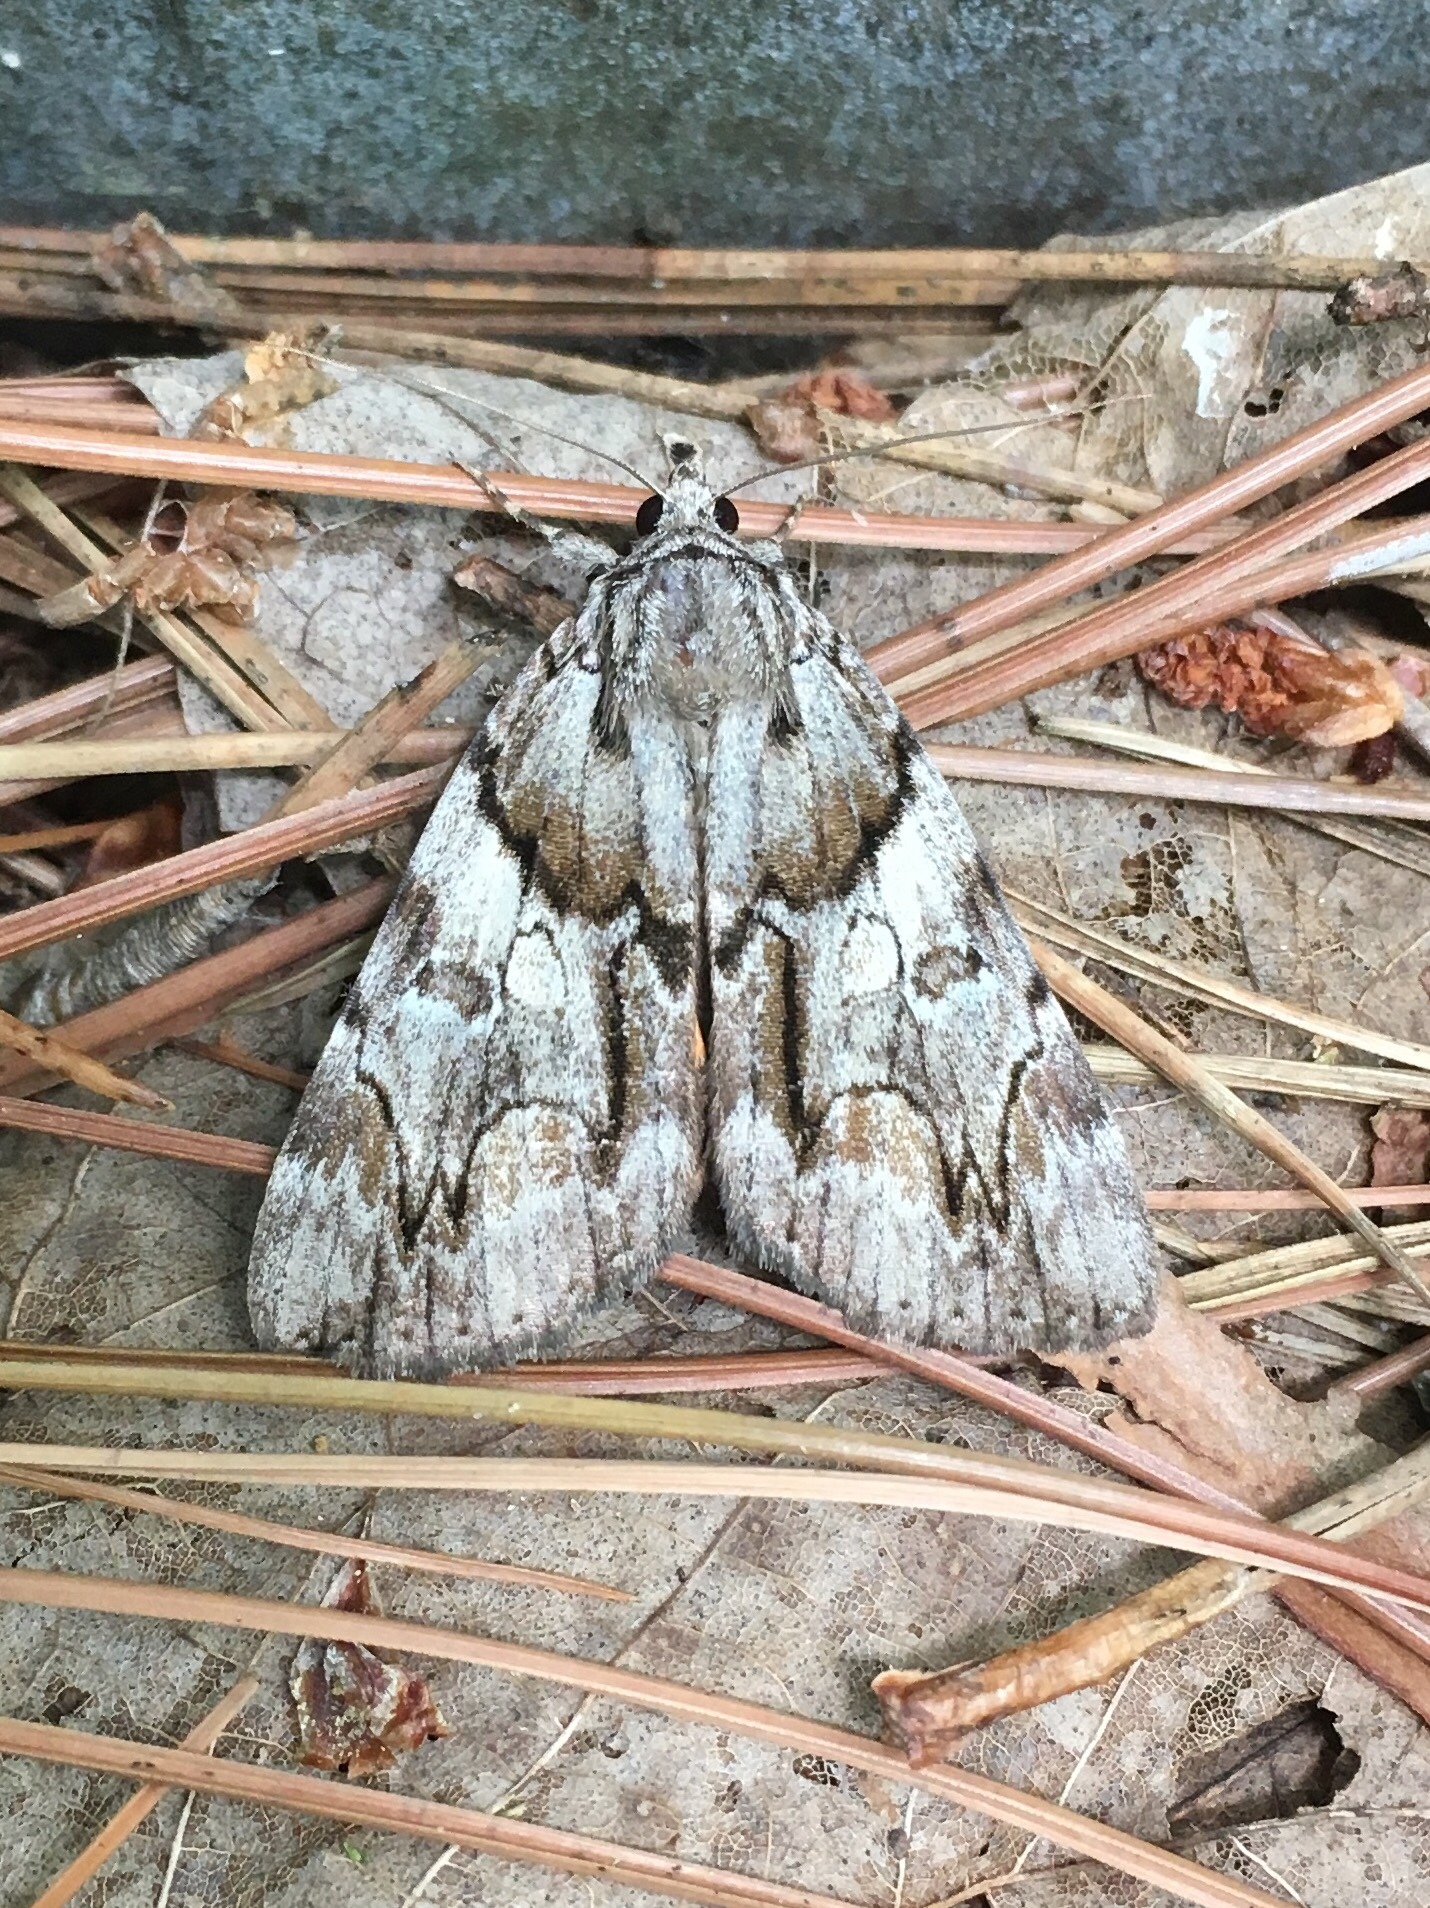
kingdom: Animalia
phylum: Arthropoda
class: Insecta
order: Lepidoptera
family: Erebidae
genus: Catocala
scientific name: Catocala blandula
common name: Charming underwing
